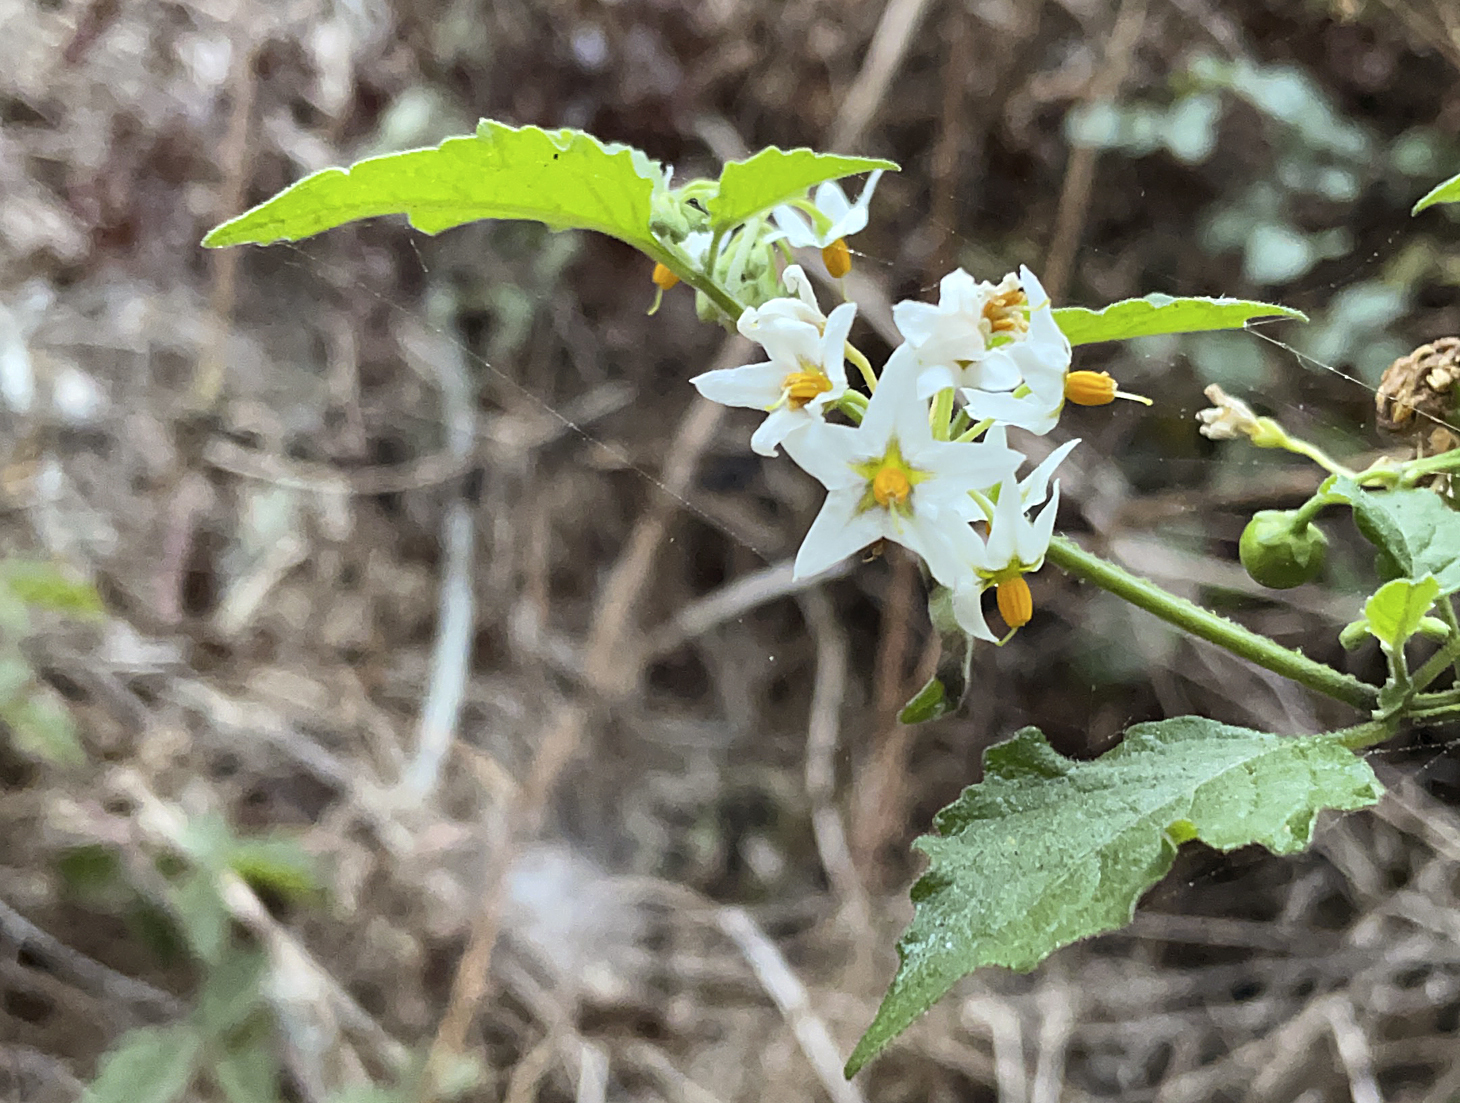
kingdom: Plantae
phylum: Tracheophyta
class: Magnoliopsida
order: Solanales
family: Solanaceae
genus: Solanum
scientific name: Solanum douglasii
